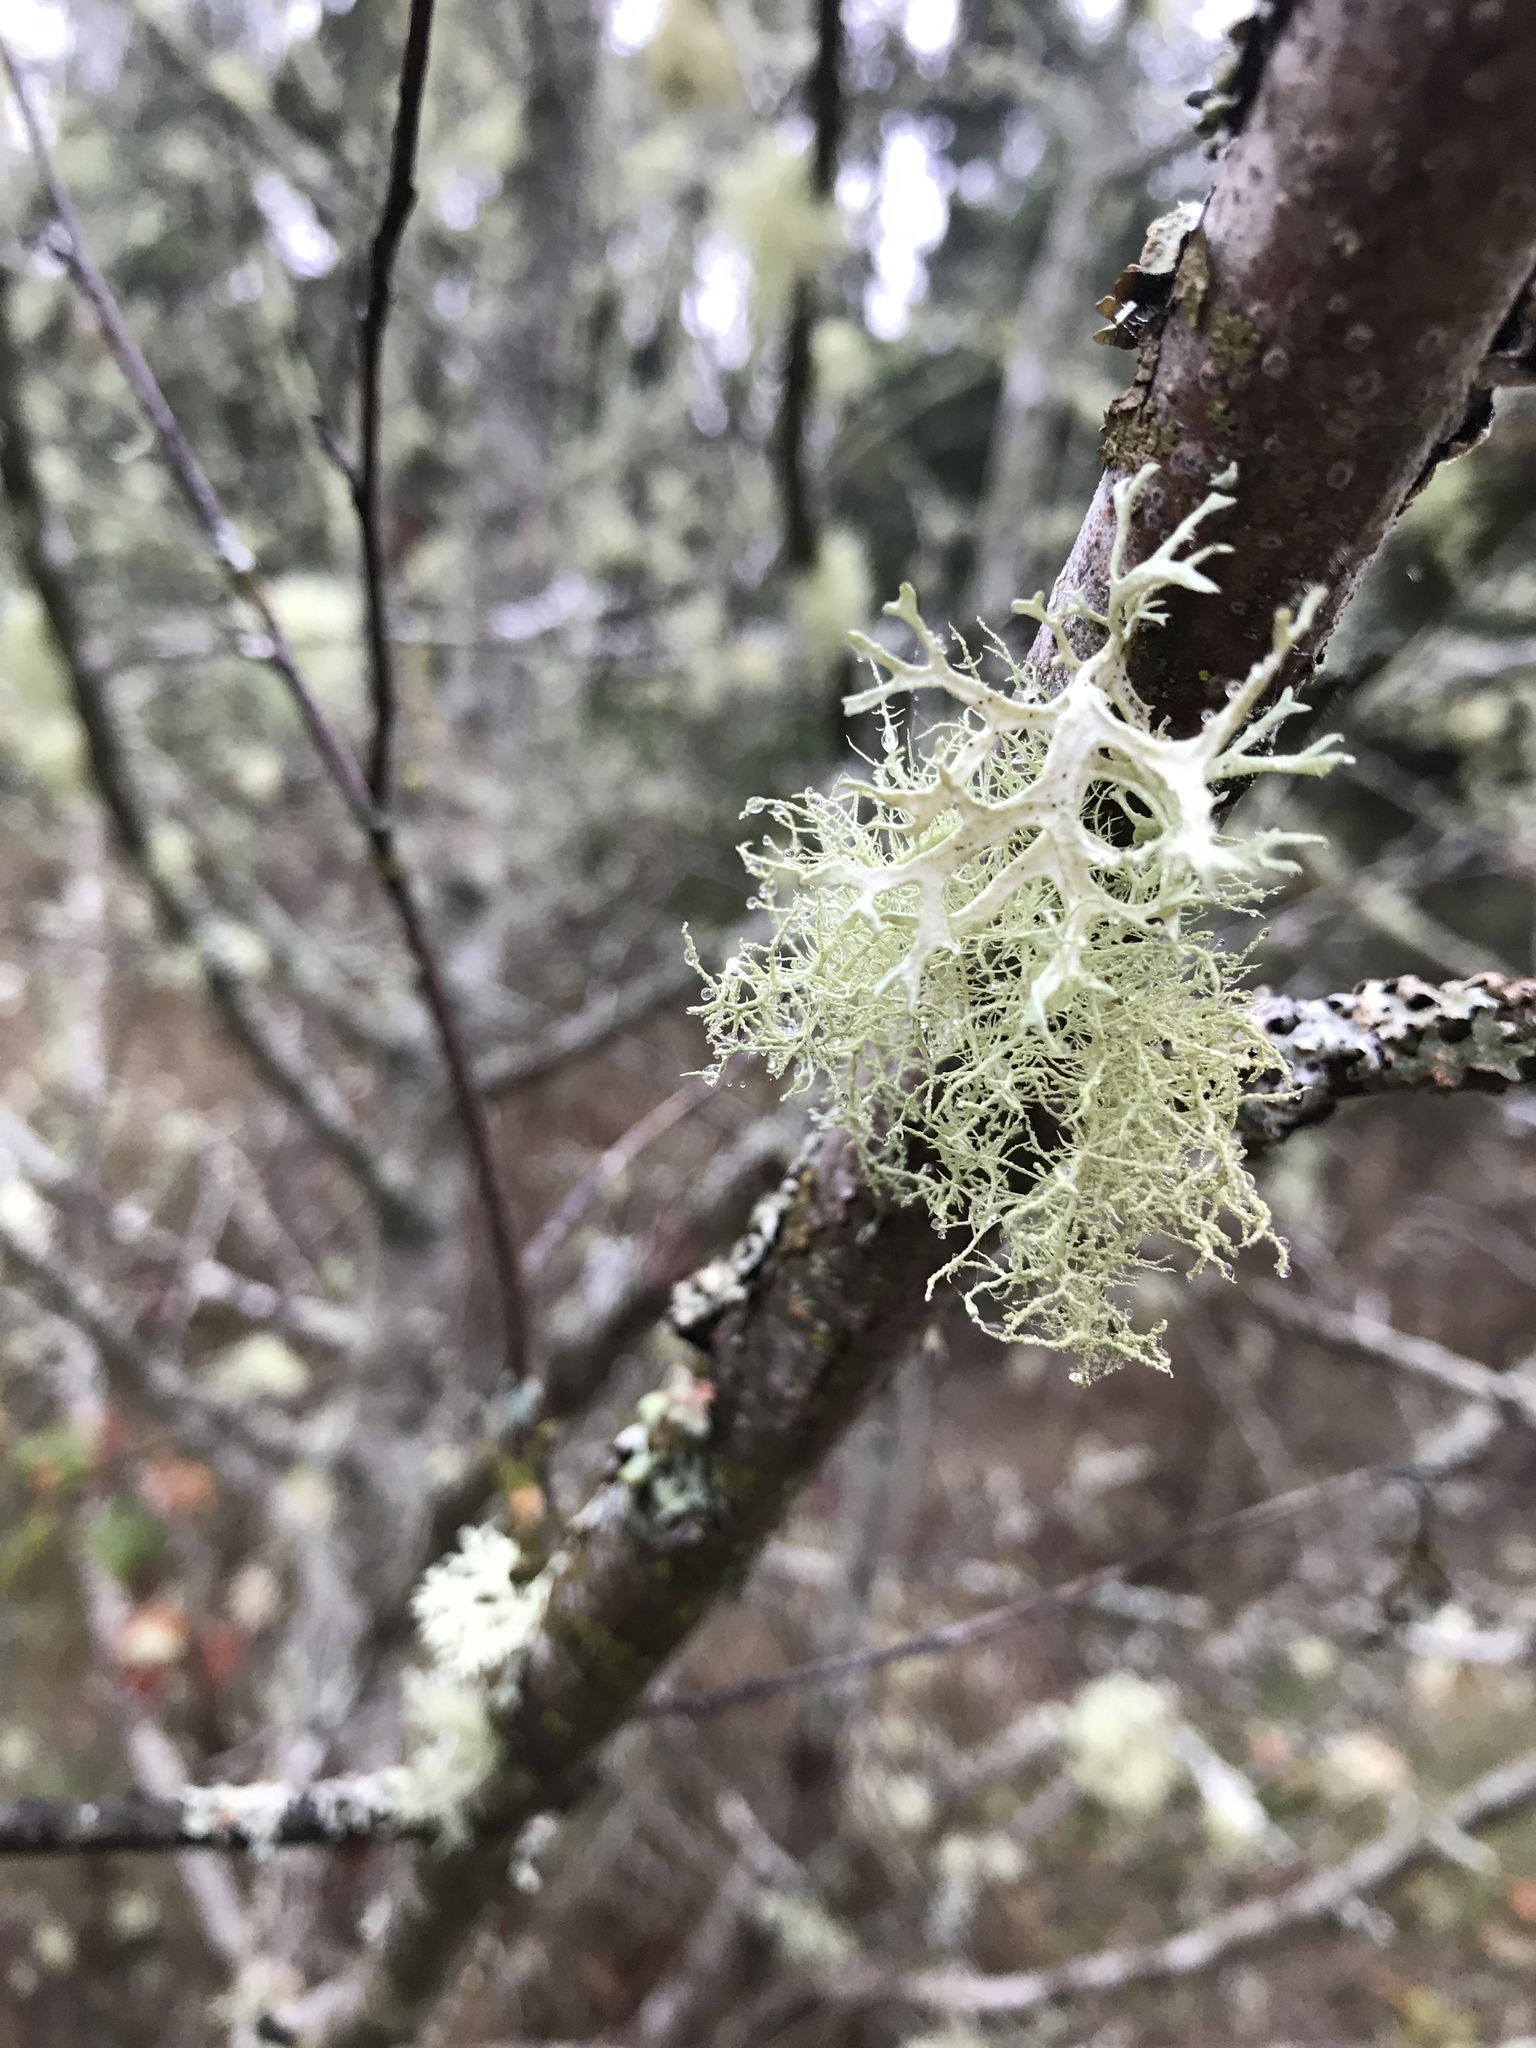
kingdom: Fungi
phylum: Ascomycota
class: Lecanoromycetes
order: Lecanorales
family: Parmeliaceae
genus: Evernia
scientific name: Evernia prunastri
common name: Oak moss
